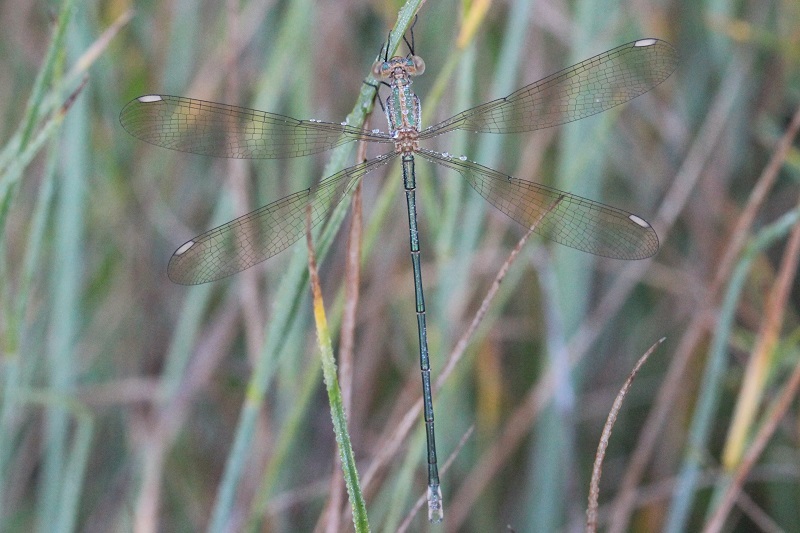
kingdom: Animalia
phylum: Arthropoda
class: Insecta
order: Odonata
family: Lestidae
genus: Lestes
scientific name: Lestes virgatus
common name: Smoky spreadwing
